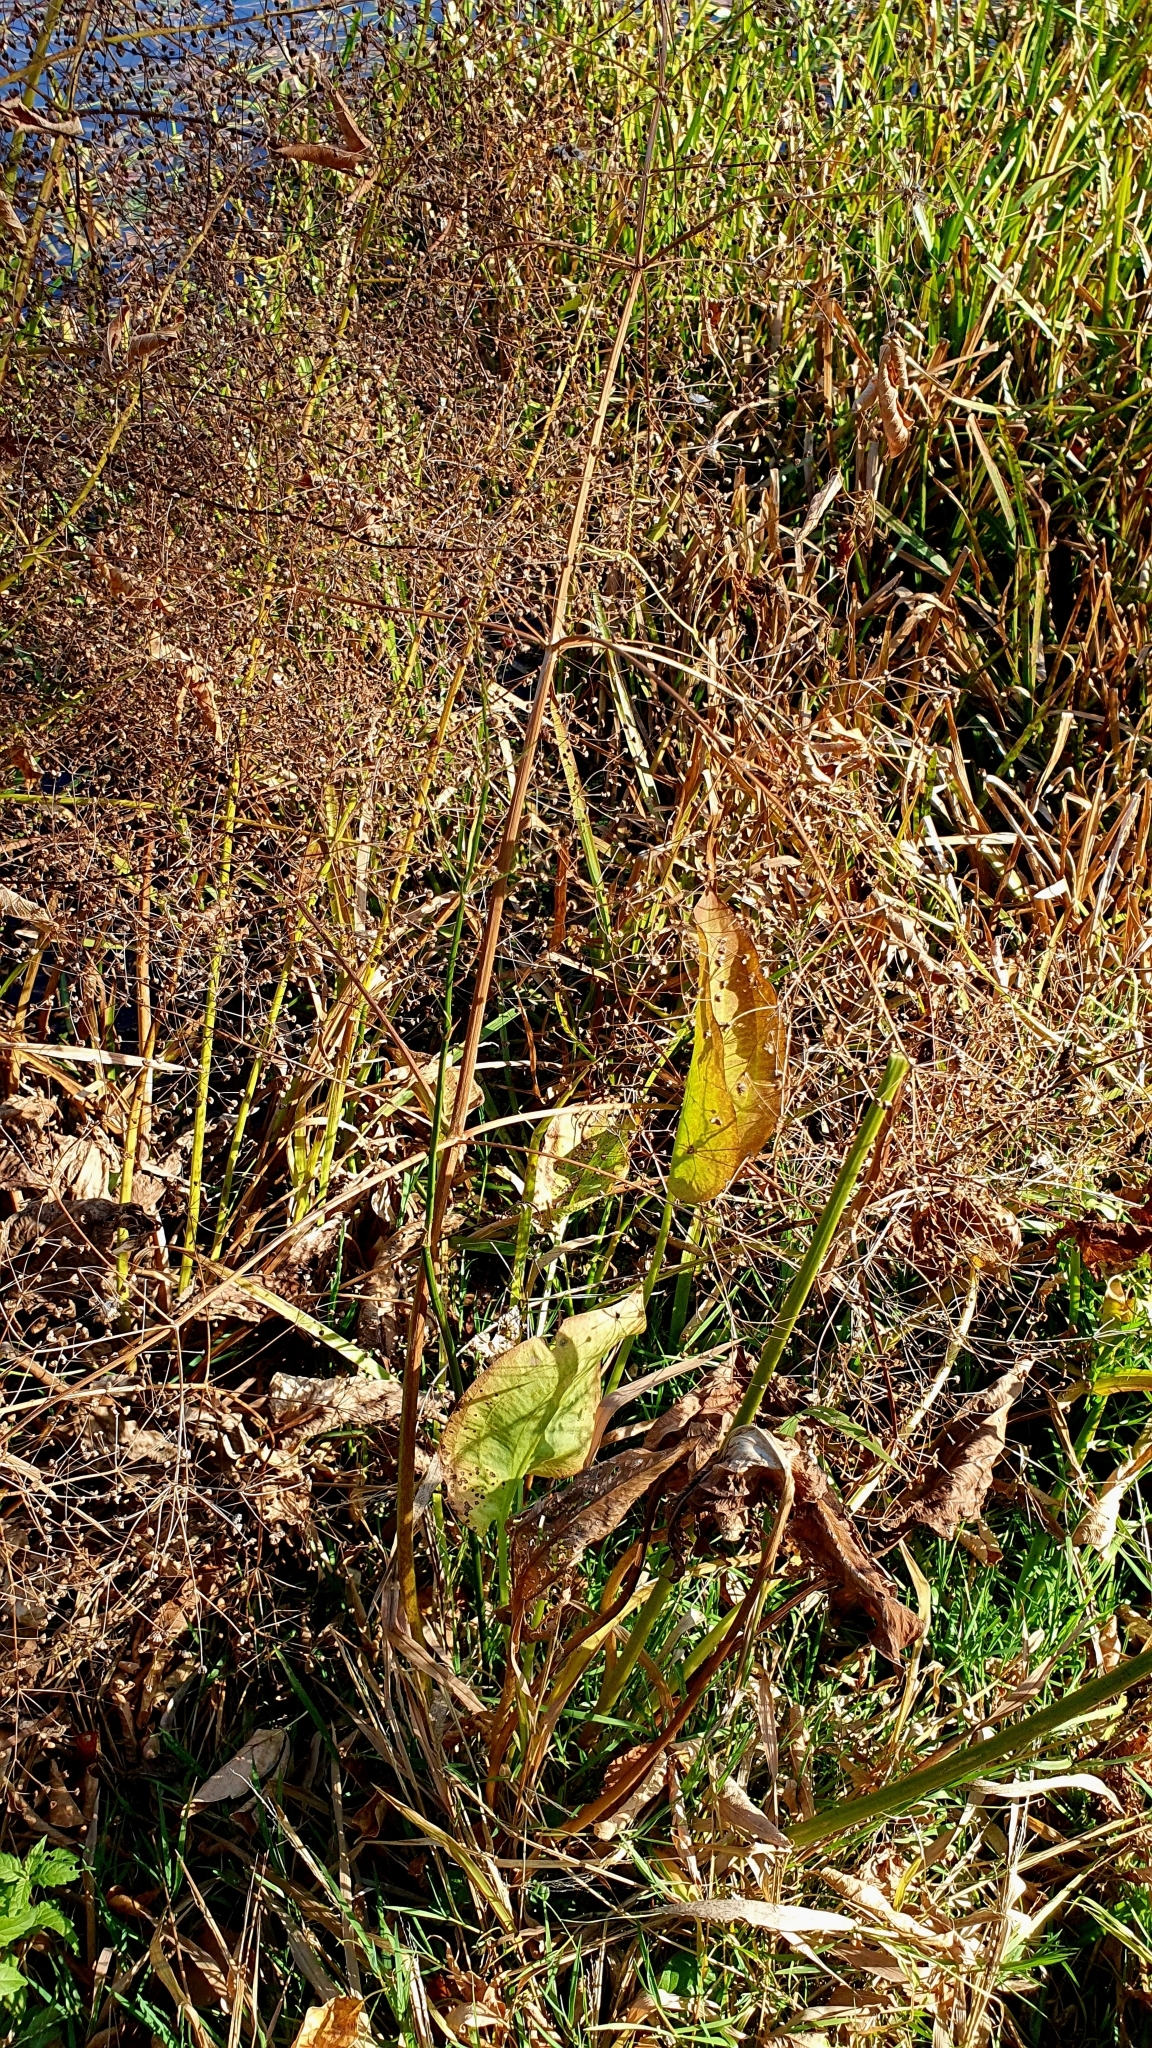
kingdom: Plantae
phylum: Tracheophyta
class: Liliopsida
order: Alismatales
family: Alismataceae
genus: Alisma
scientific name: Alisma plantago-aquatica
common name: Water-plantain
